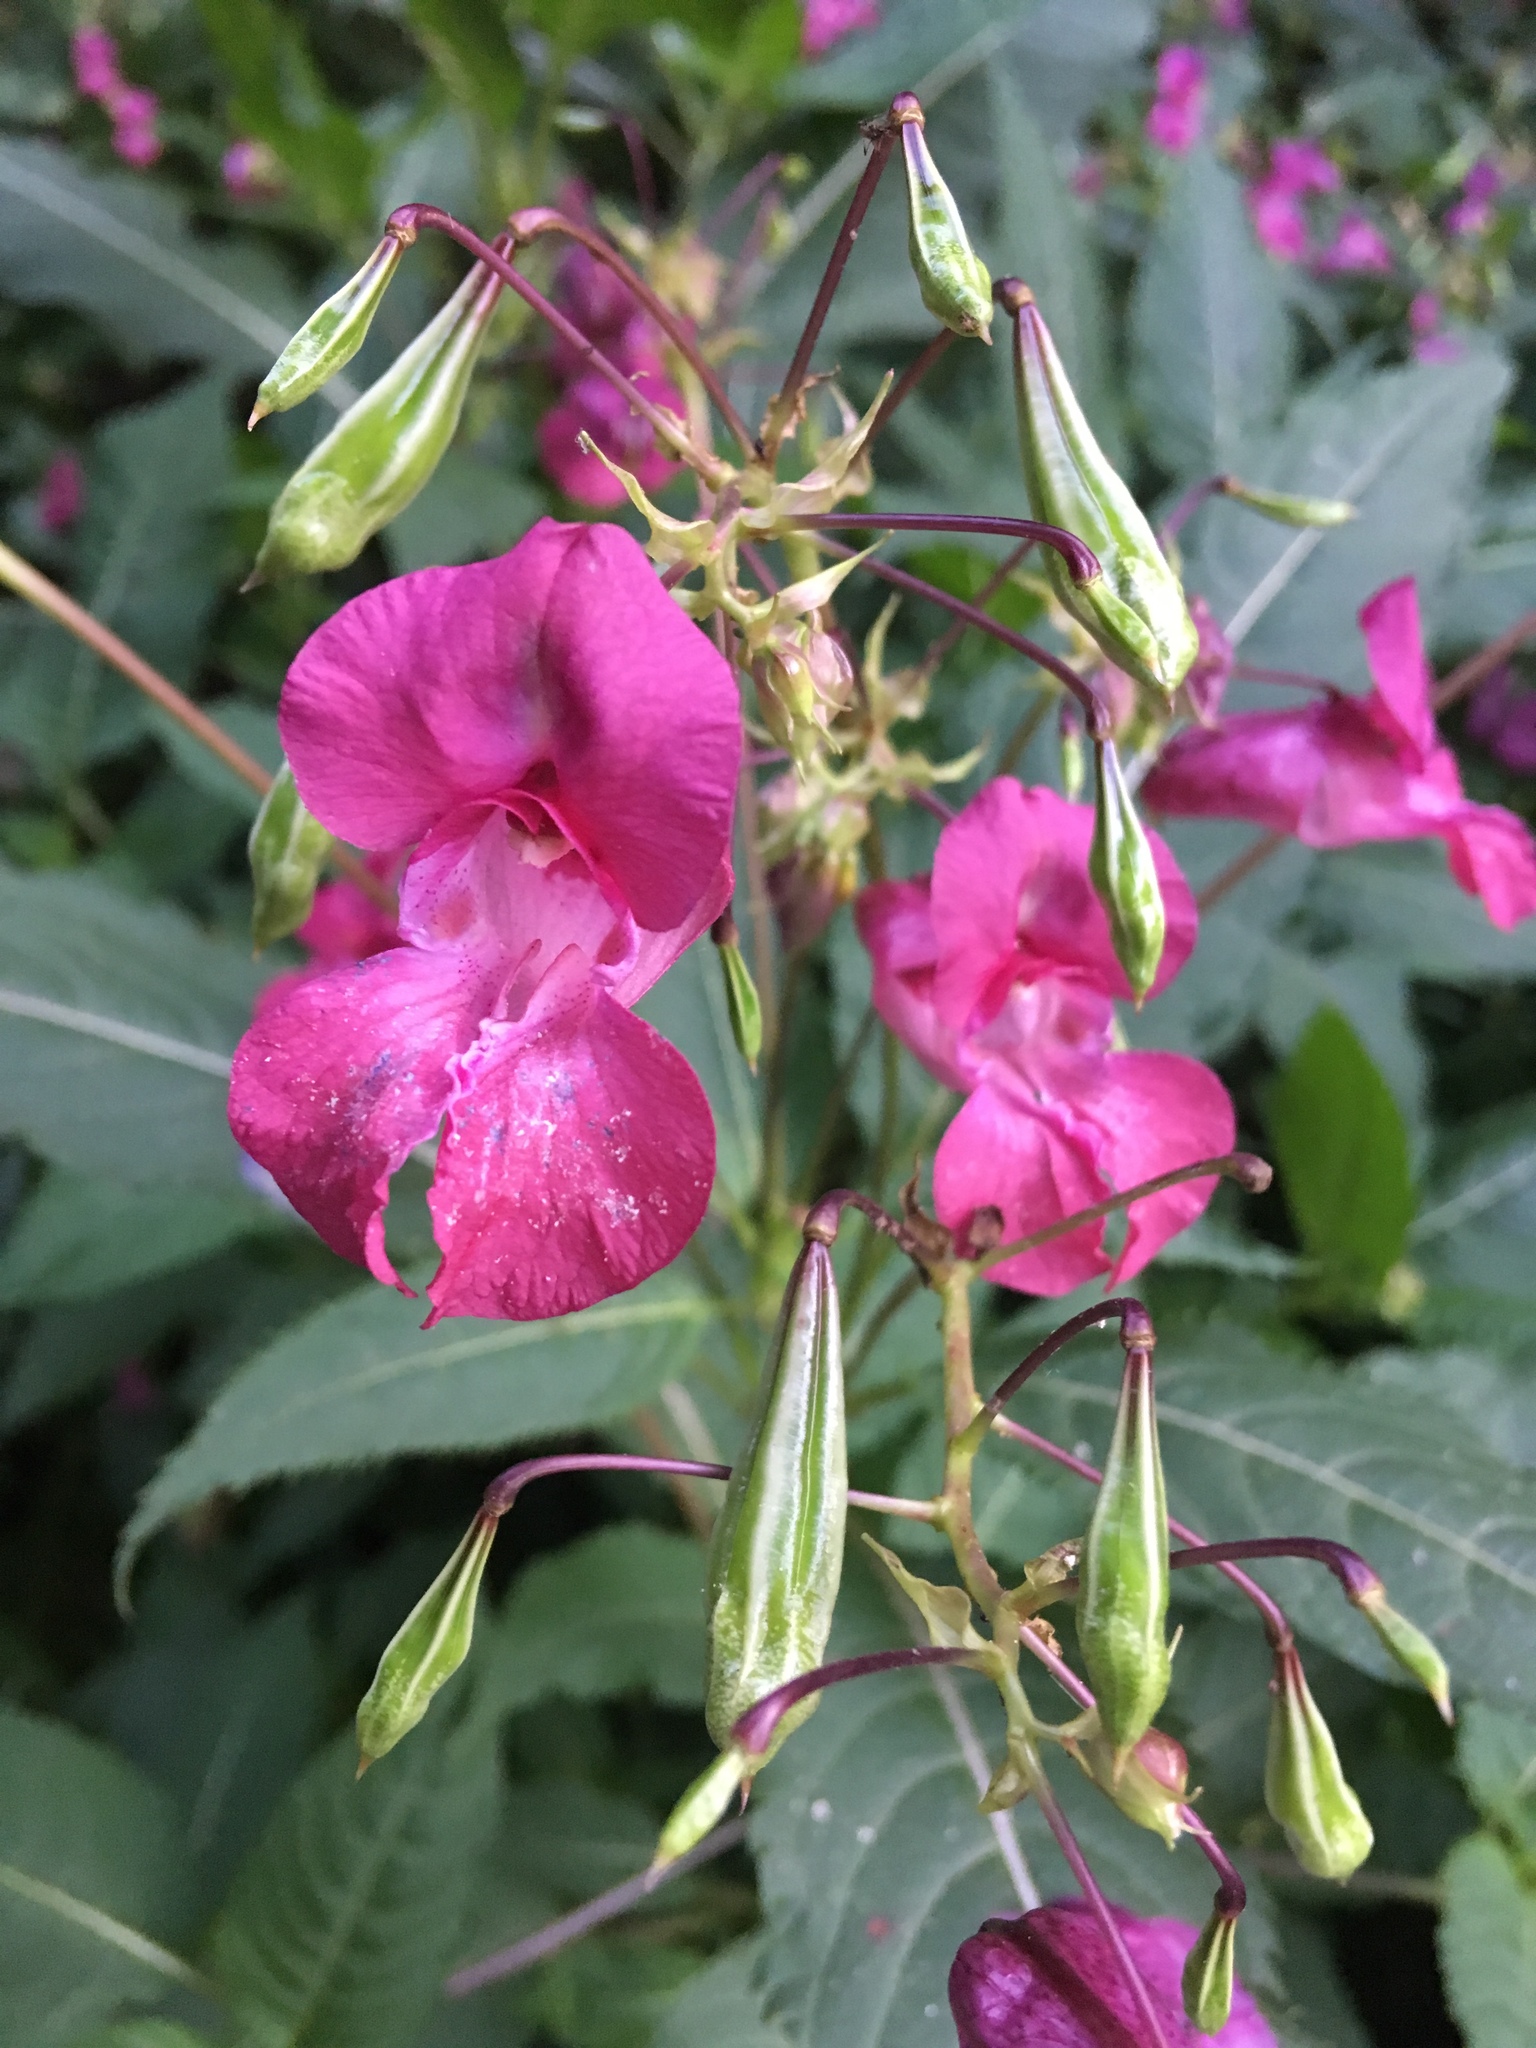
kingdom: Plantae
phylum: Tracheophyta
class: Magnoliopsida
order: Ericales
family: Balsaminaceae
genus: Impatiens
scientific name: Impatiens glandulifera
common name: Himalayan balsam
